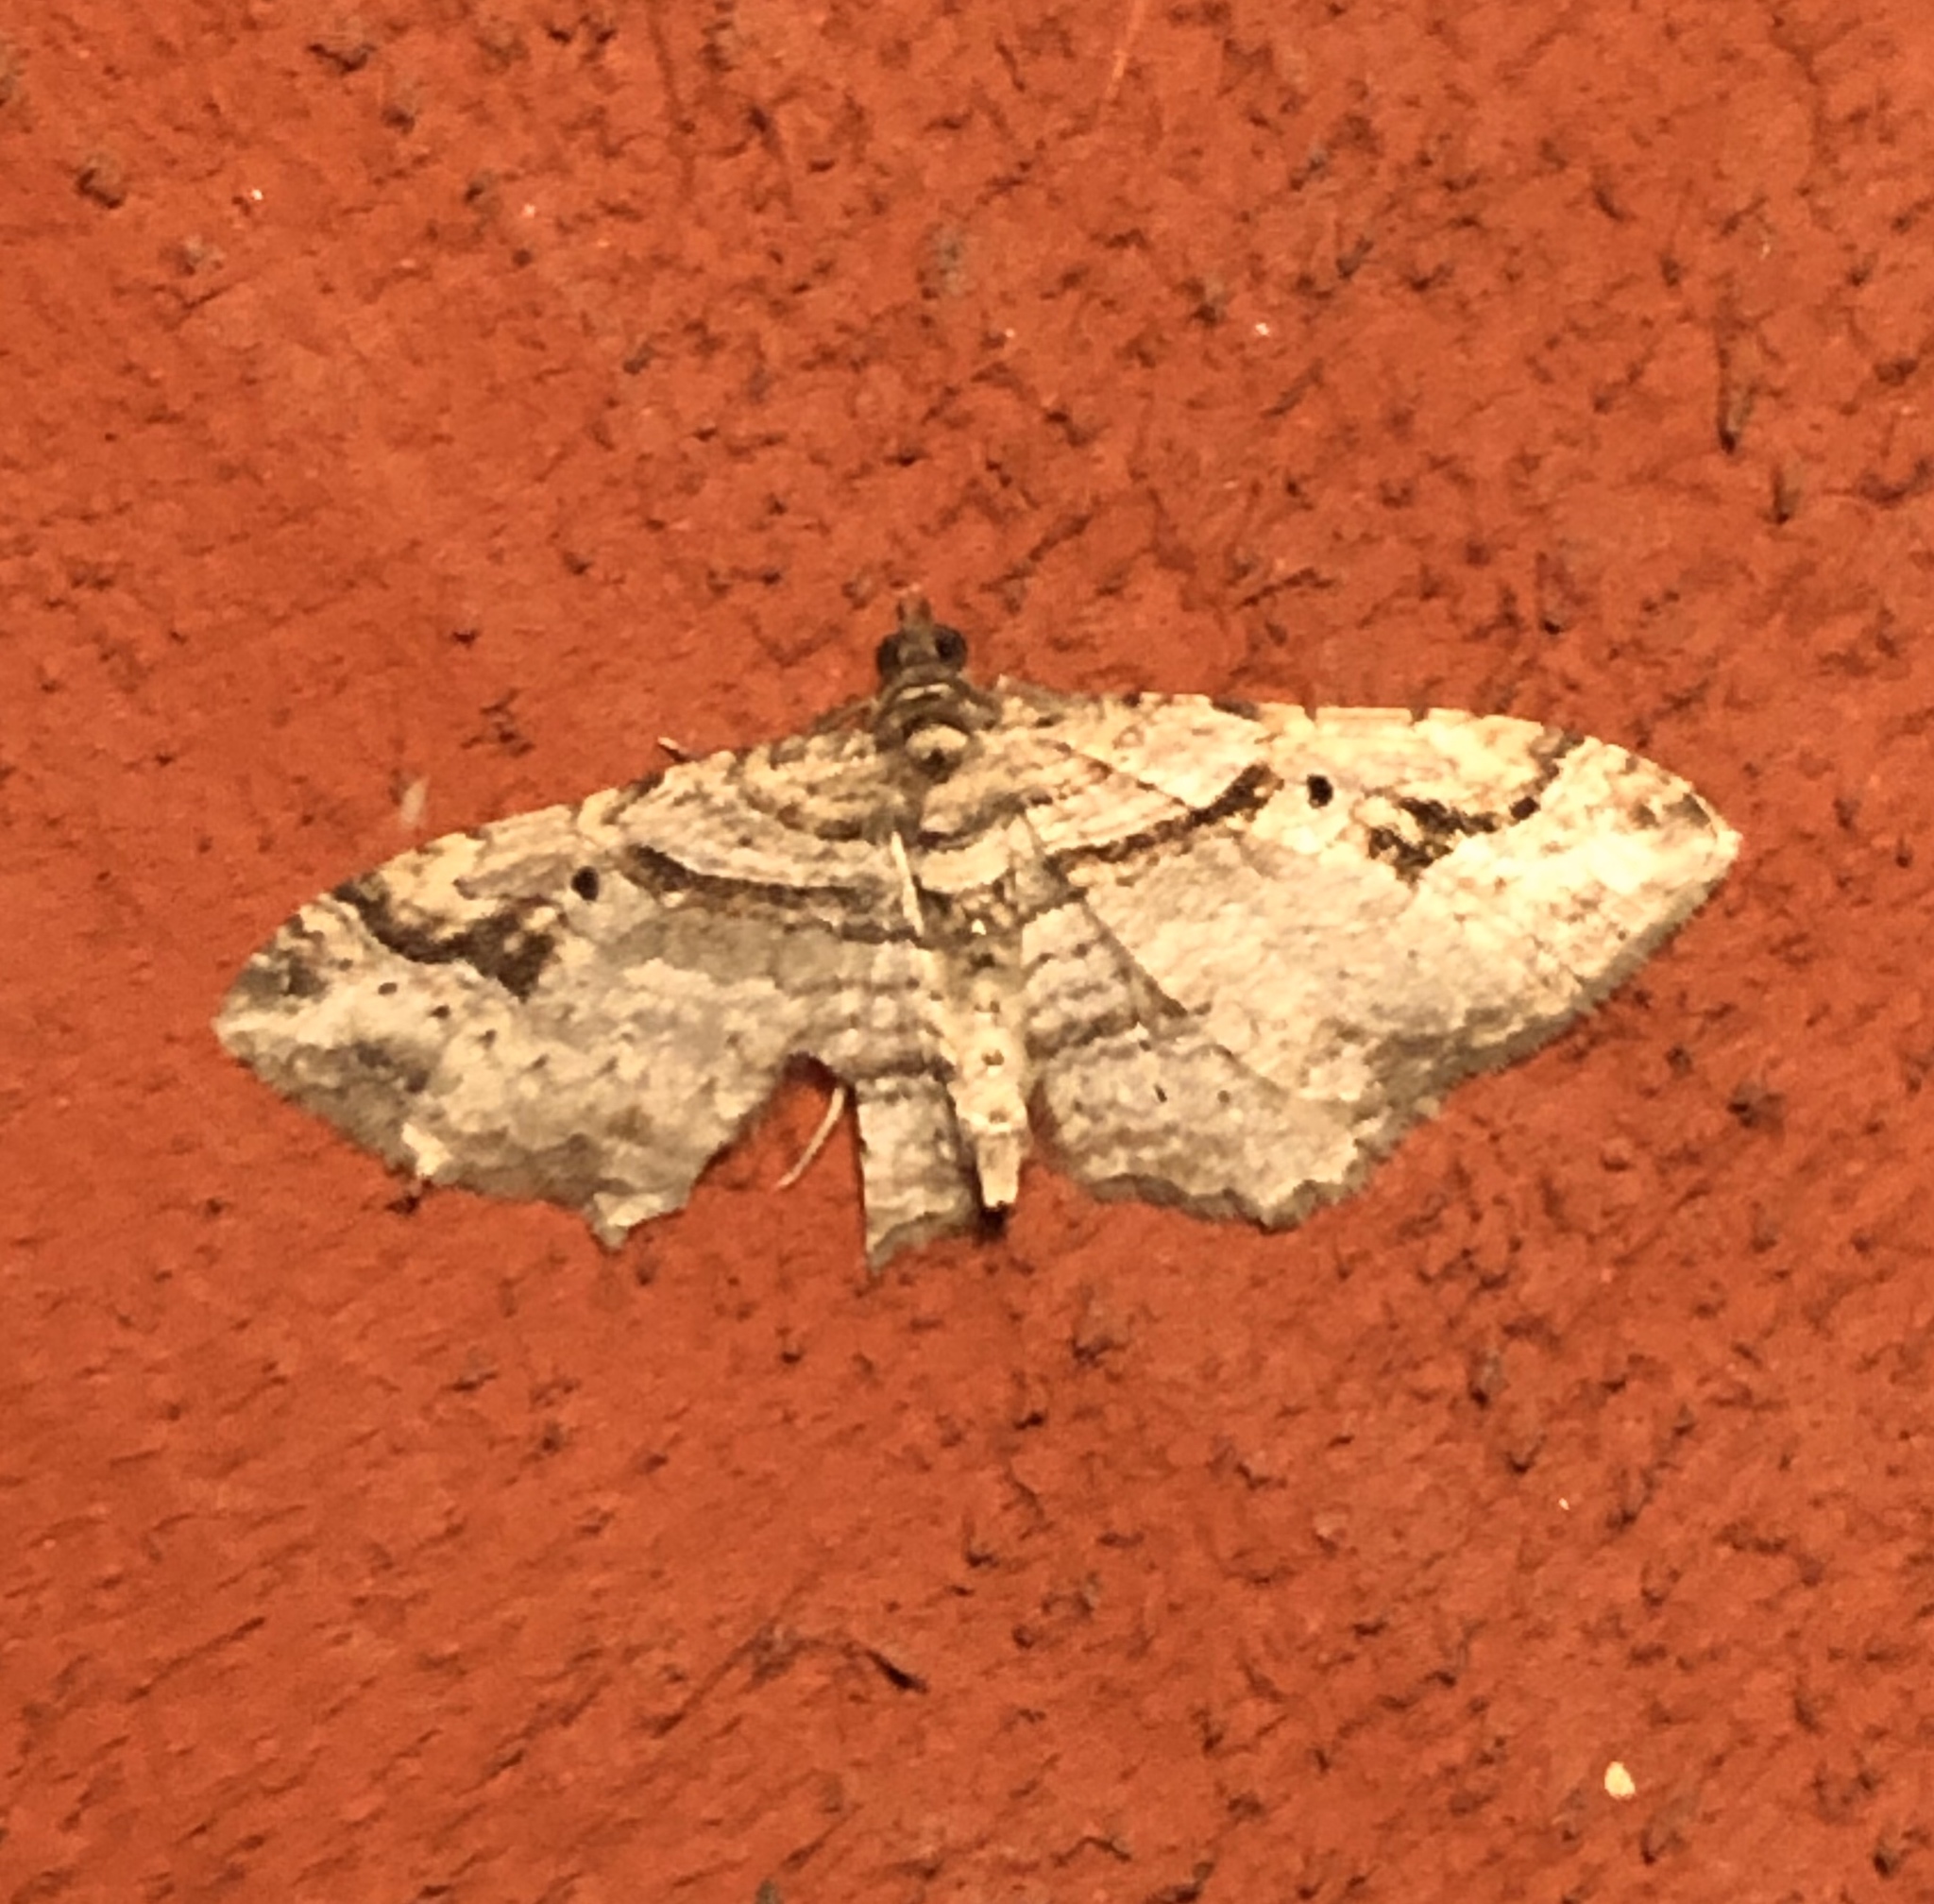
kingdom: Animalia
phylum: Arthropoda
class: Insecta
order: Lepidoptera
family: Geometridae
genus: Costaconvexa
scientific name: Costaconvexa centrostrigaria
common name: Bent-line carpet
